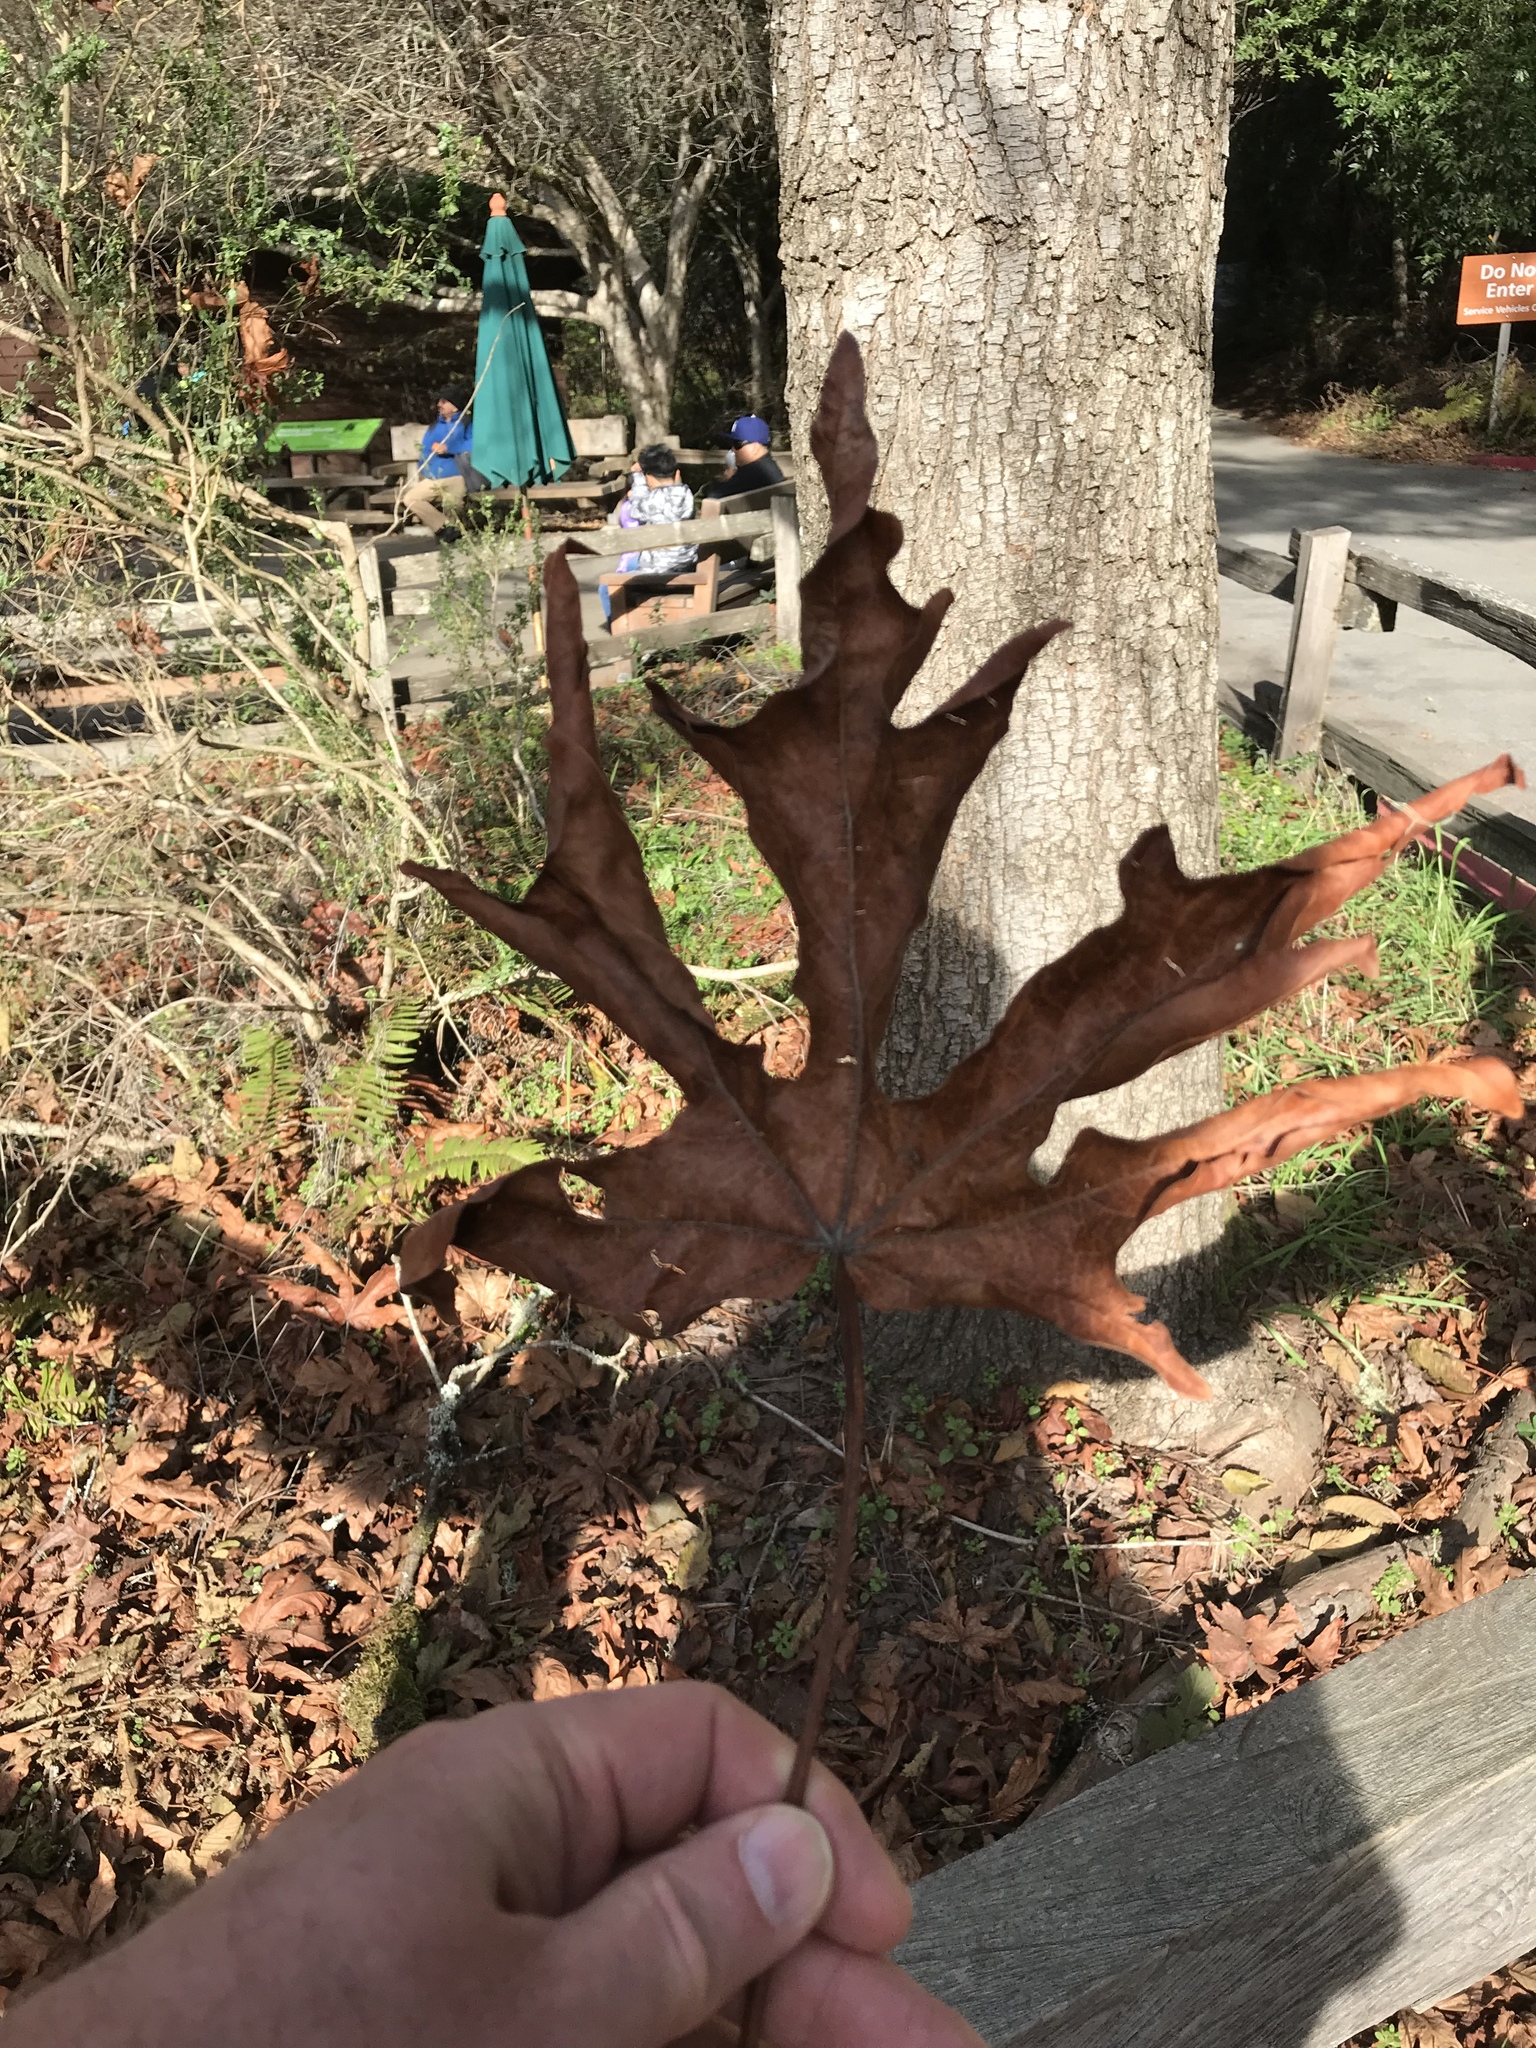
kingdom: Plantae
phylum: Tracheophyta
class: Magnoliopsida
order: Sapindales
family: Sapindaceae
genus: Acer
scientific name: Acer macrophyllum
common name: Oregon maple
